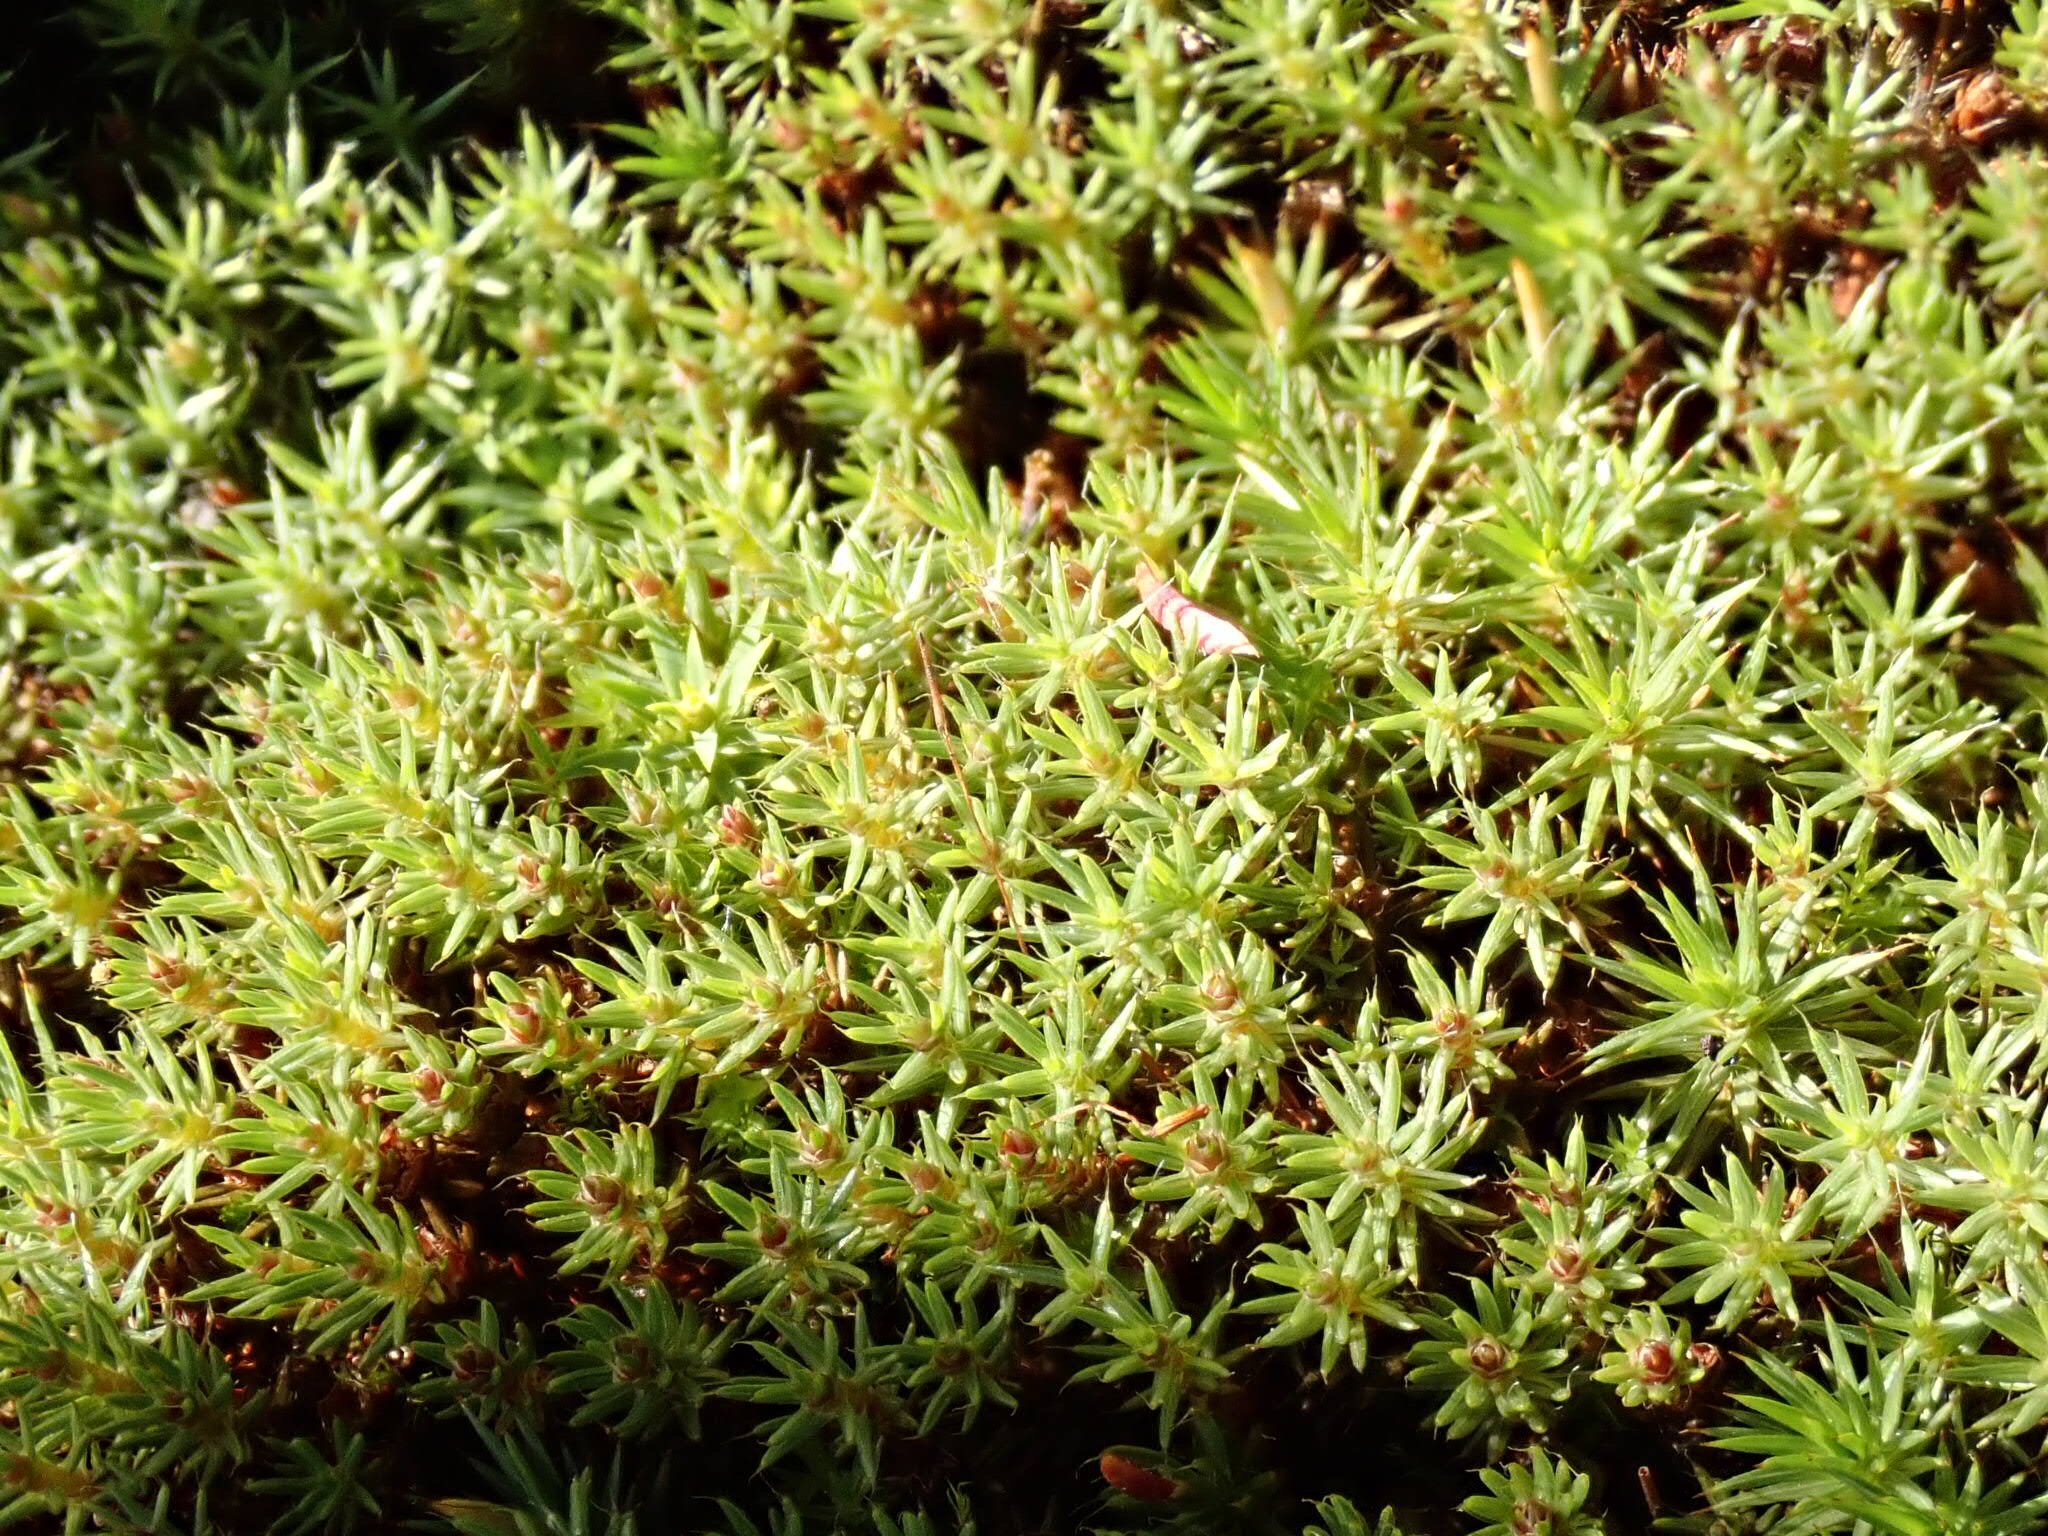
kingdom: Plantae
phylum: Bryophyta
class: Polytrichopsida
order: Polytrichales
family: Polytrichaceae
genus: Polytrichum
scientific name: Polytrichum piliferum
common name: Bristly haircap
